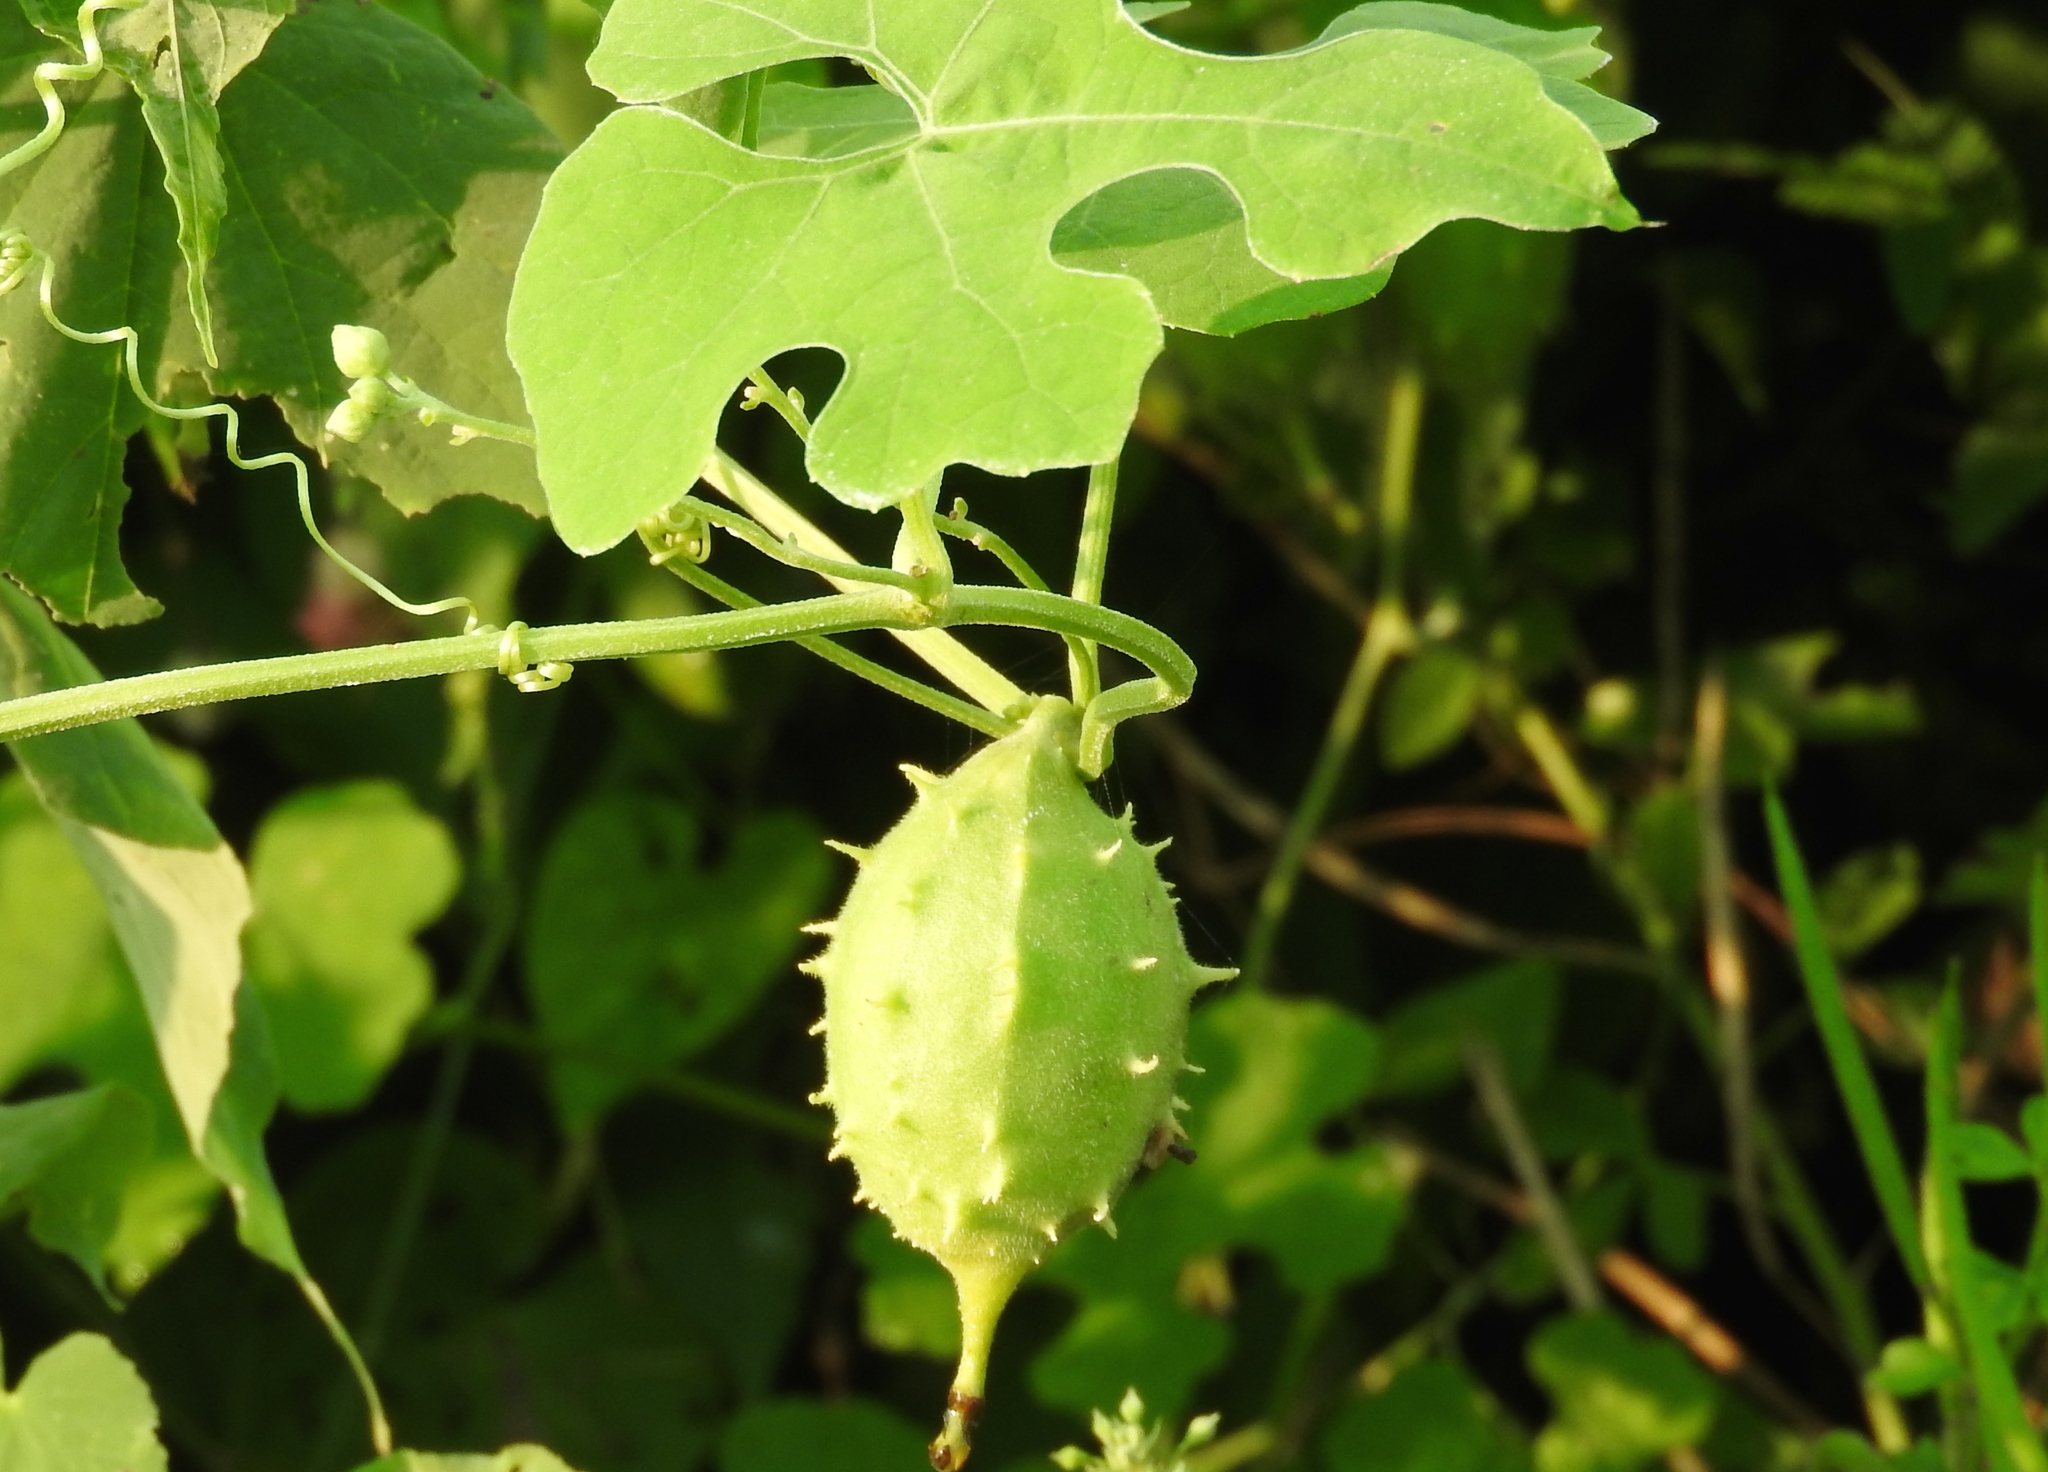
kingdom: Plantae
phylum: Tracheophyta
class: Magnoliopsida
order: Cucurbitales
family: Cucurbitaceae
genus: Momordica
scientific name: Momordica charantia
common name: Balsampear
